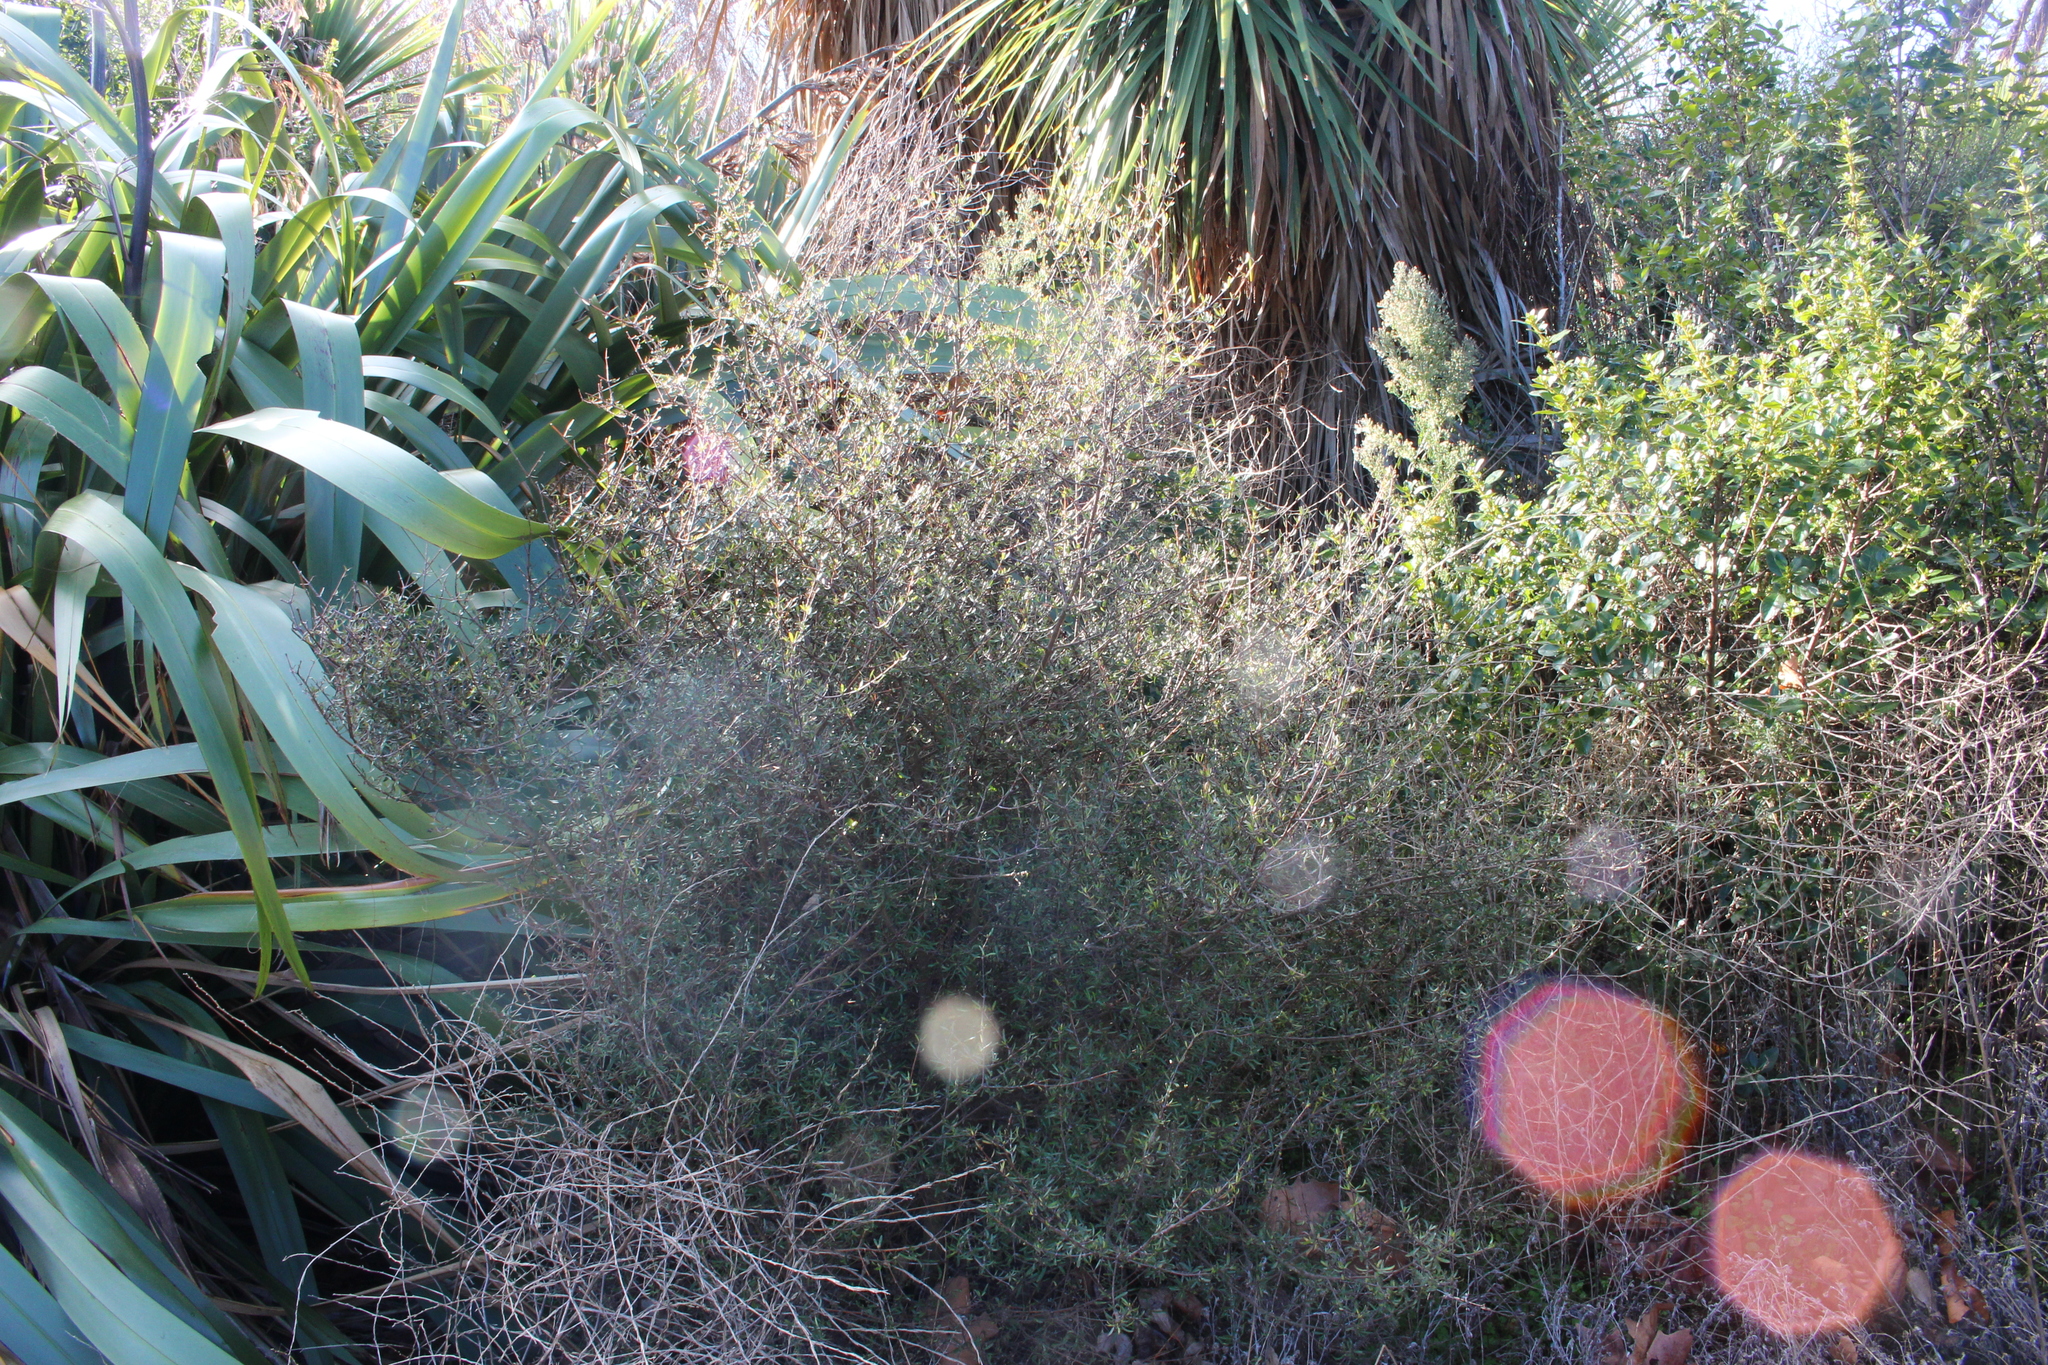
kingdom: Plantae
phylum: Tracheophyta
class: Magnoliopsida
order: Gentianales
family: Rubiaceae
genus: Coprosma
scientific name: Coprosma propinqua
